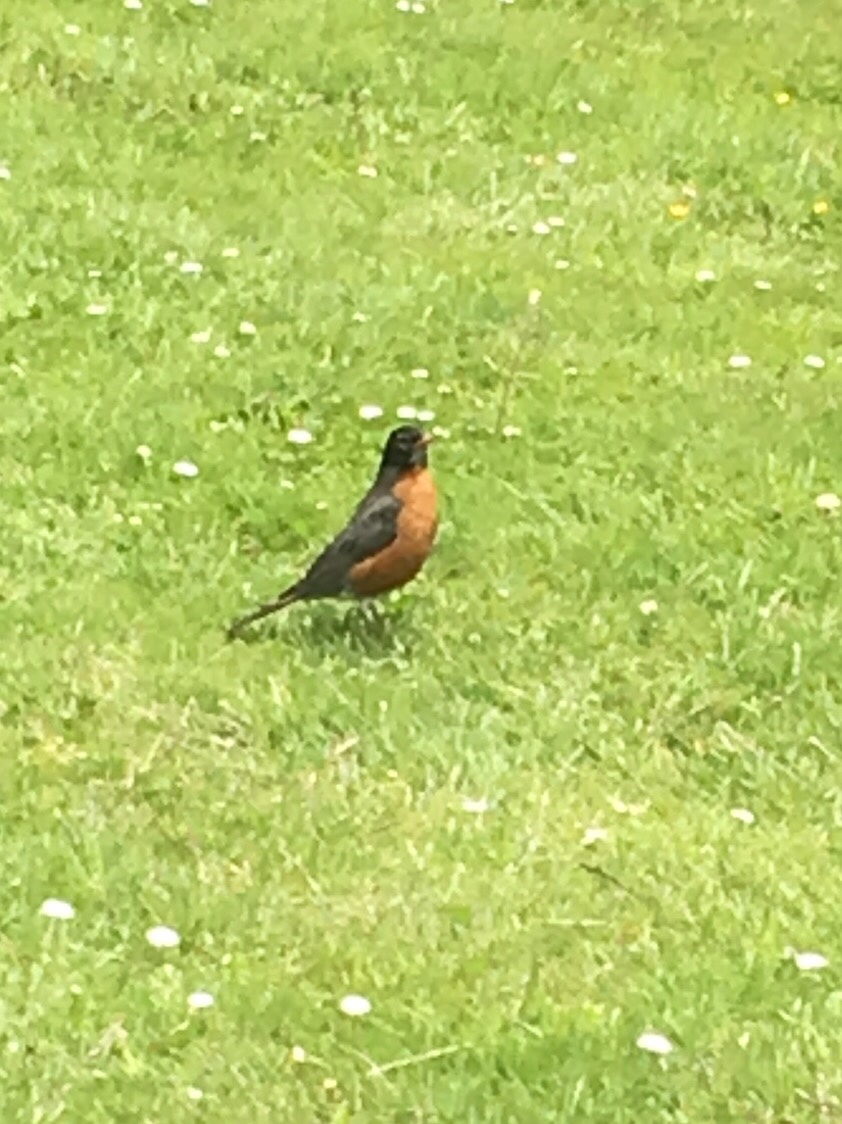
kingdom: Animalia
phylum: Chordata
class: Aves
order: Passeriformes
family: Turdidae
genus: Turdus
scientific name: Turdus migratorius
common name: American robin
